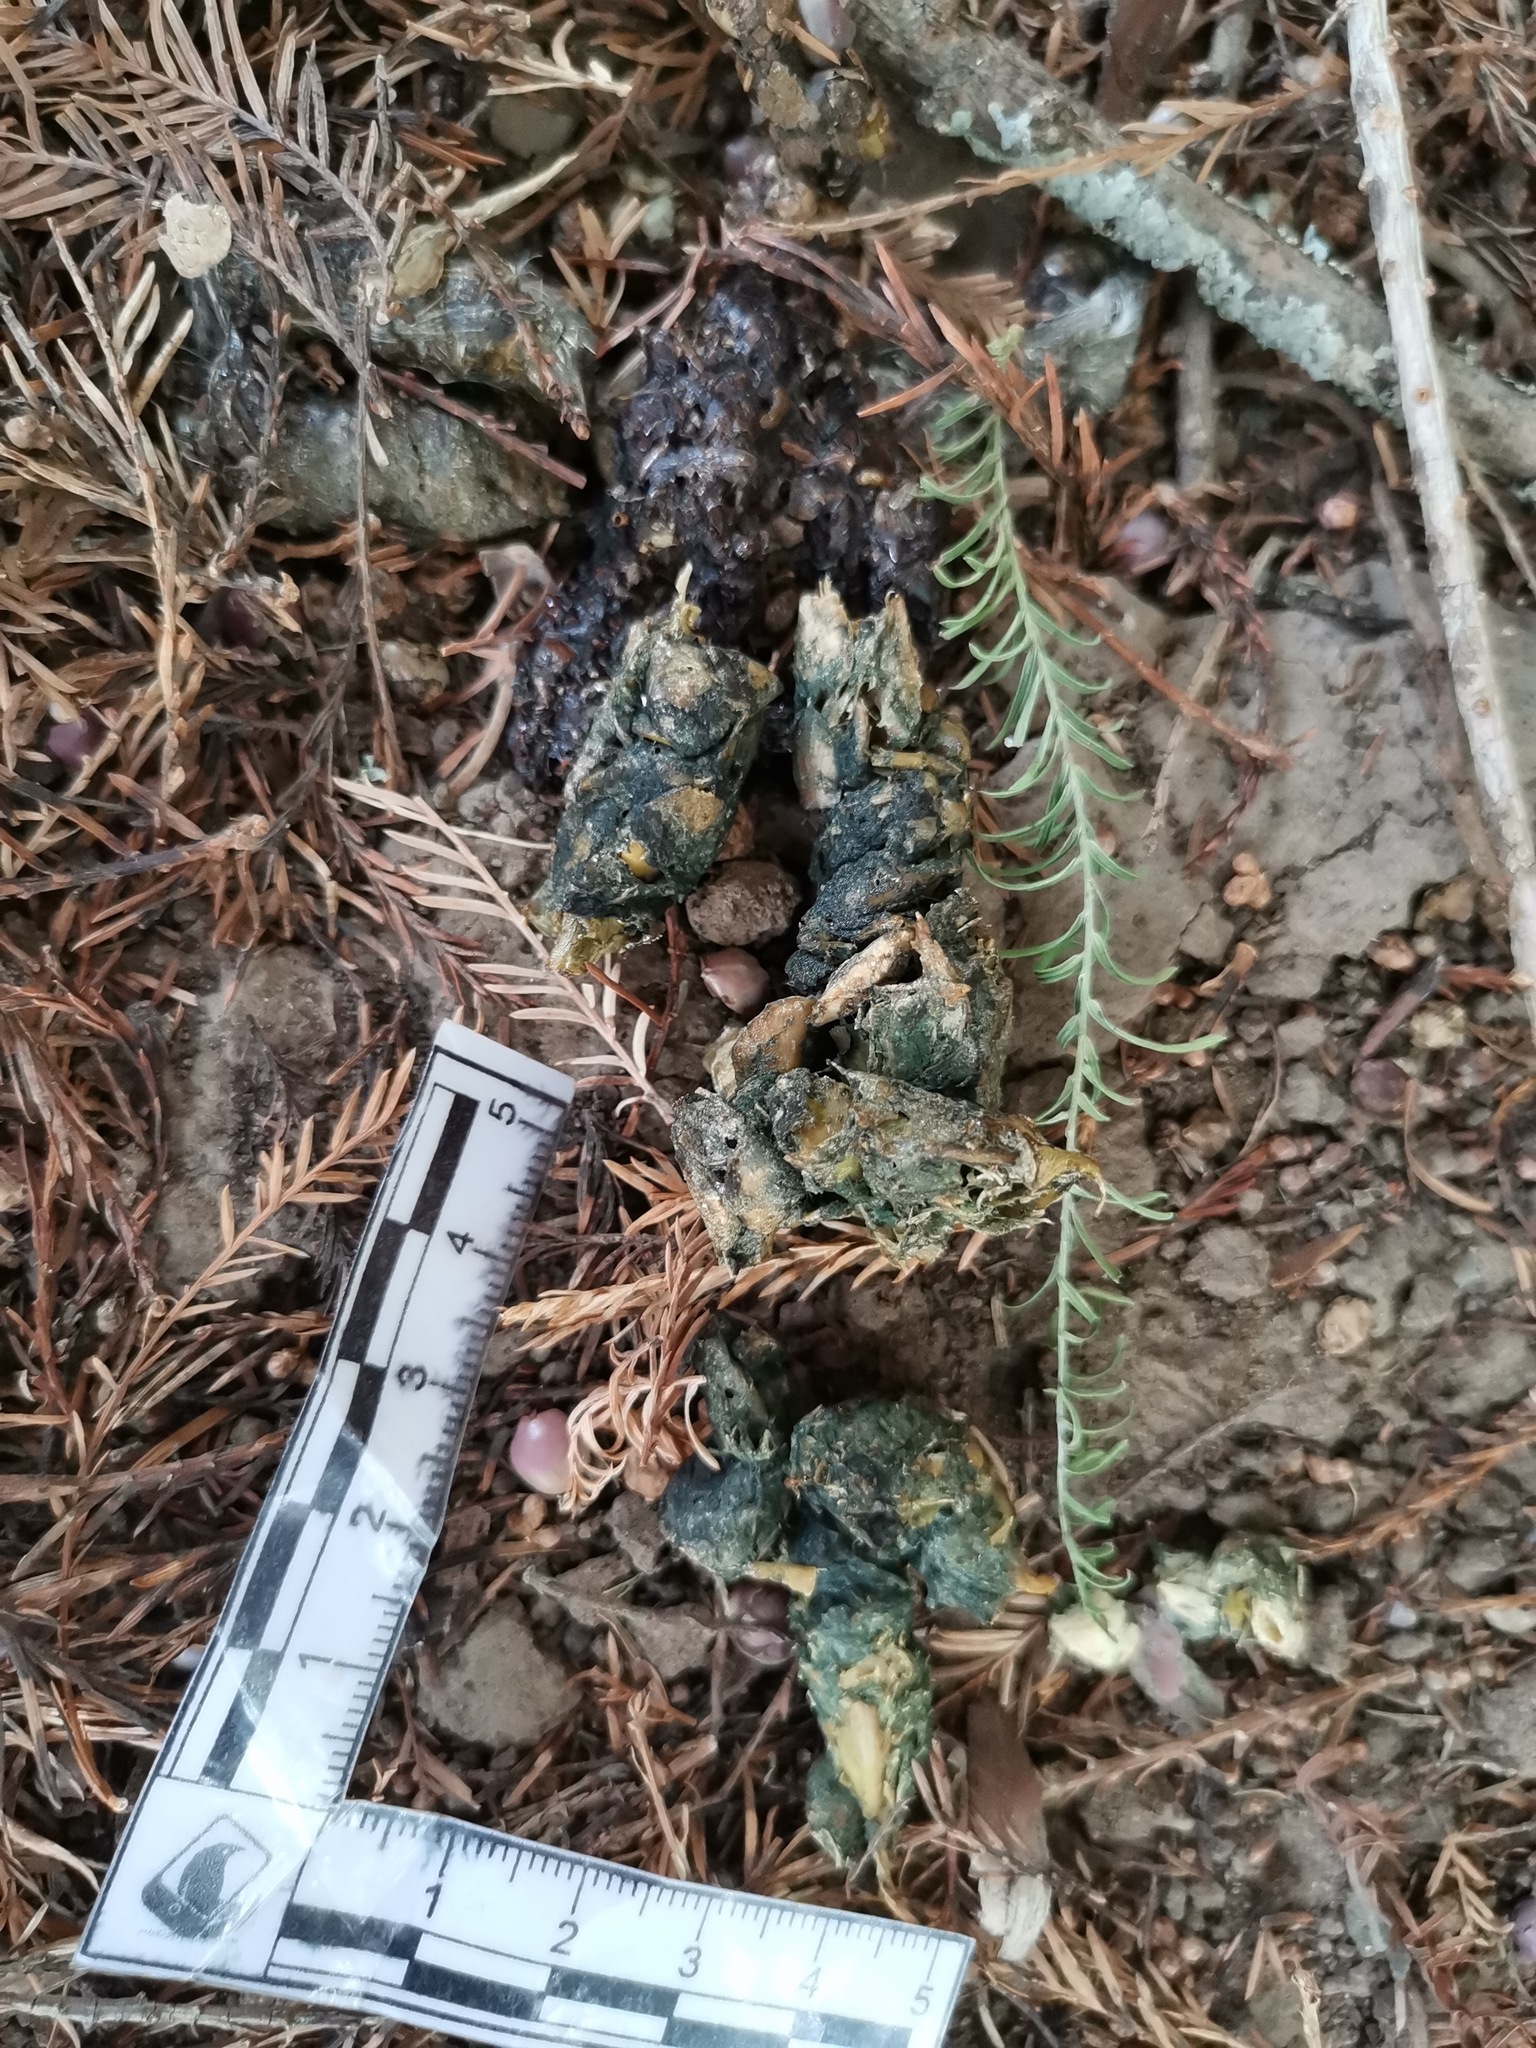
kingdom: Animalia
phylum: Chordata
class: Mammalia
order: Carnivora
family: Procyonidae
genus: Bassariscus
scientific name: Bassariscus astutus
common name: Ringtail
